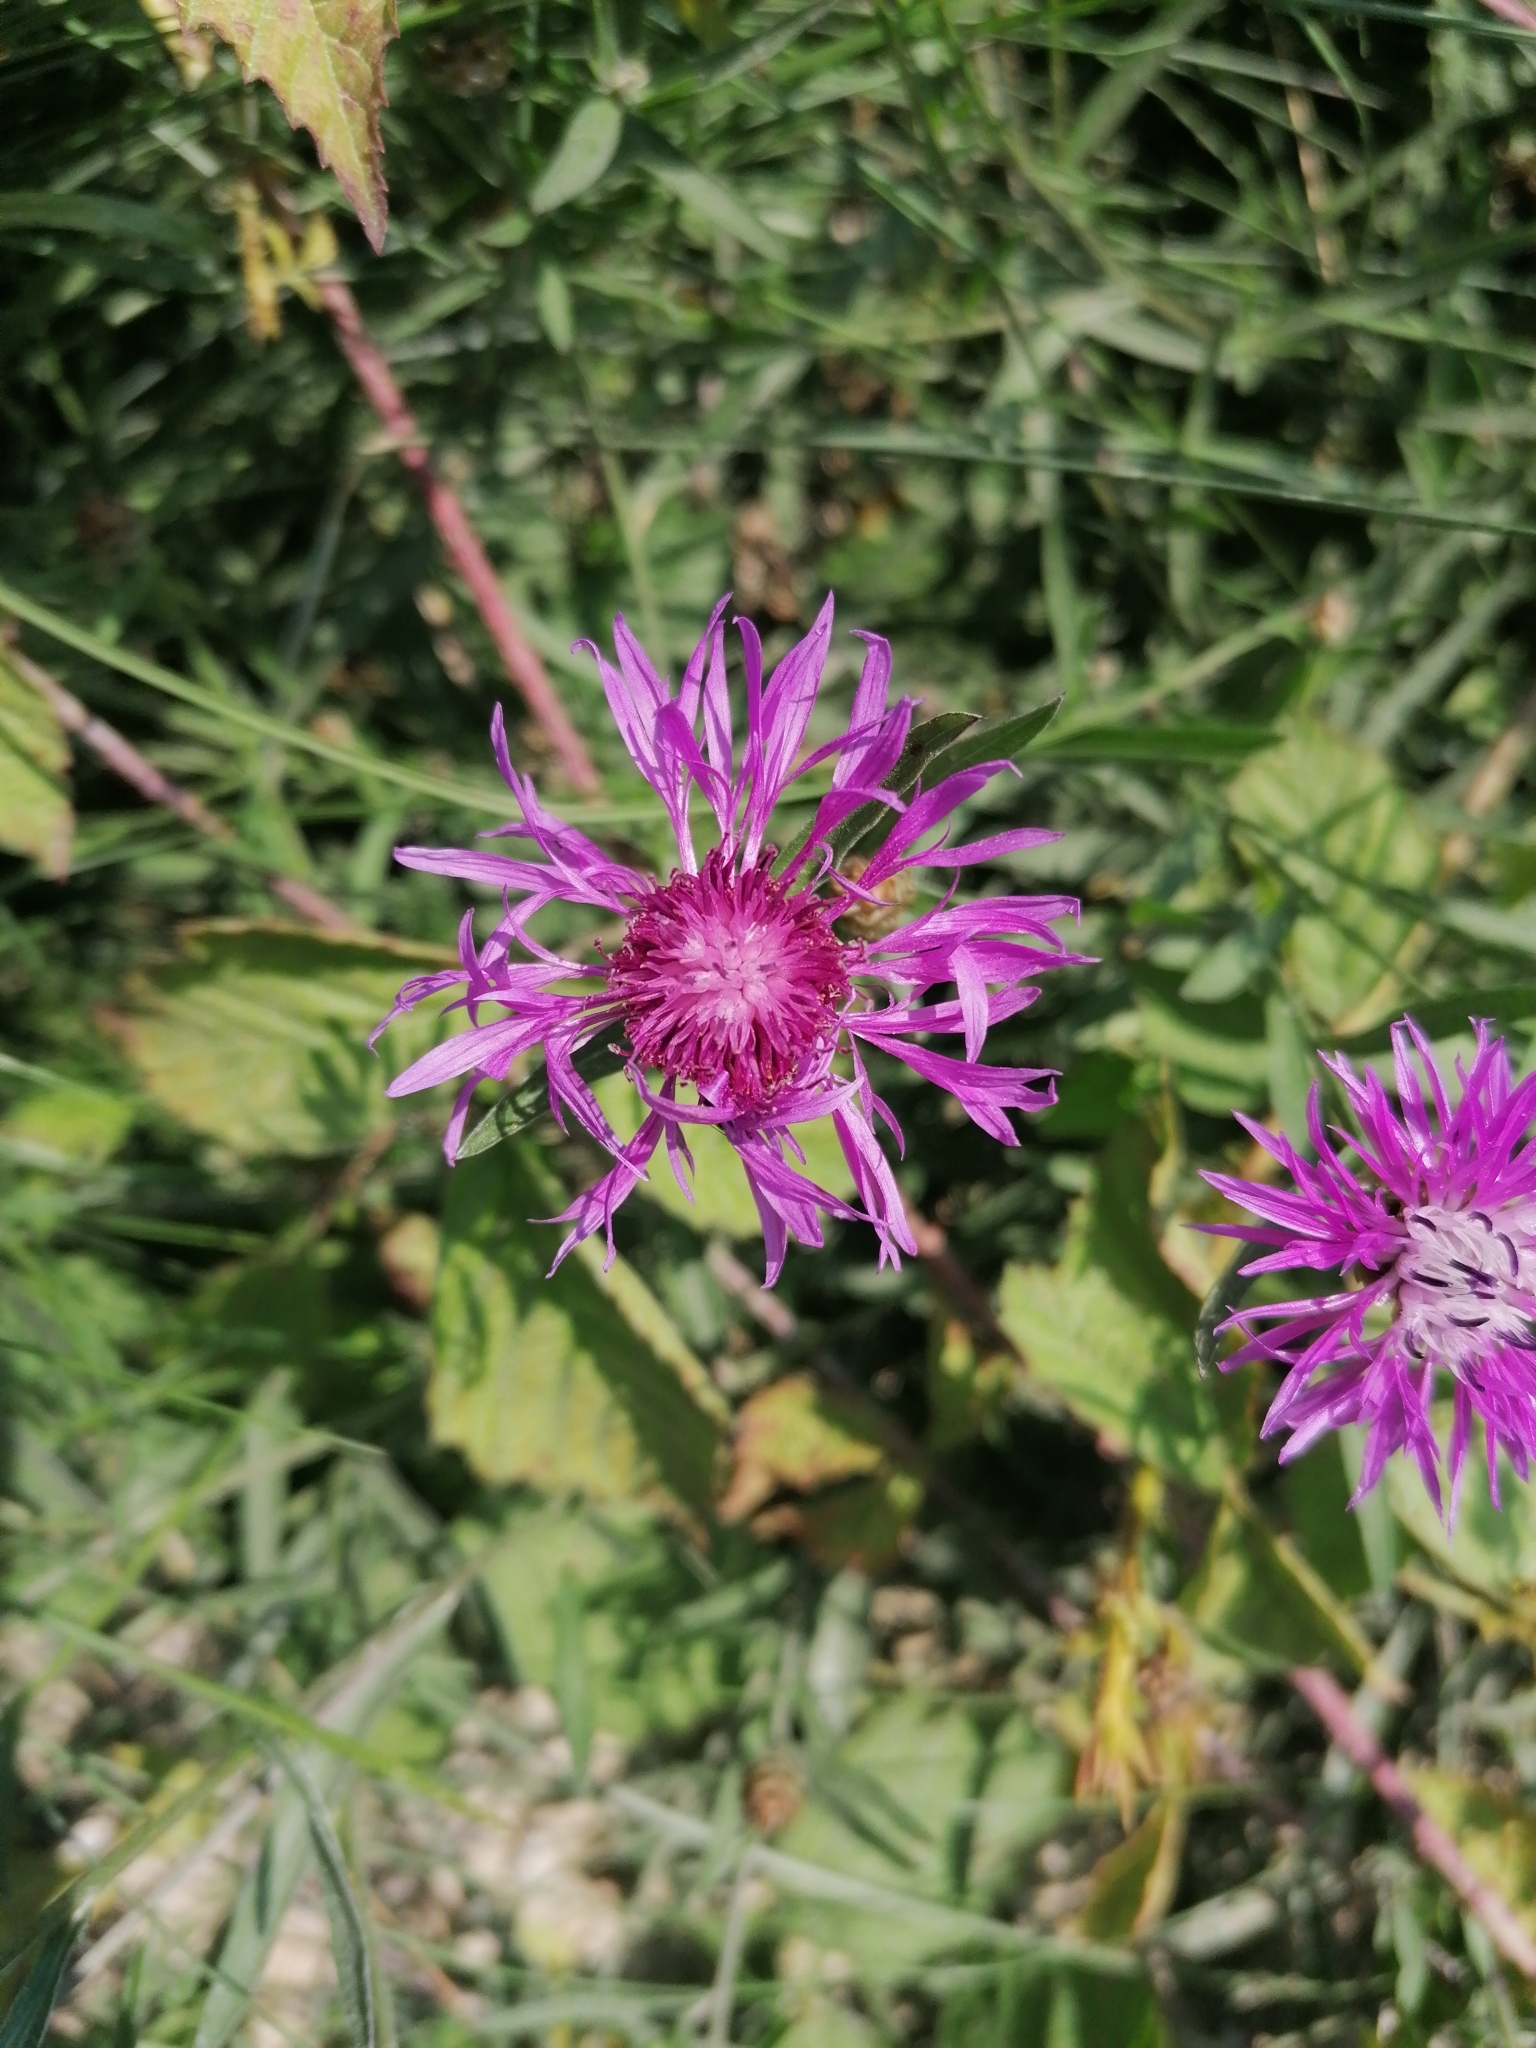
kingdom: Plantae
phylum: Tracheophyta
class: Magnoliopsida
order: Asterales
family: Asteraceae
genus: Centaurea
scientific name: Centaurea jacea
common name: Brown knapweed
